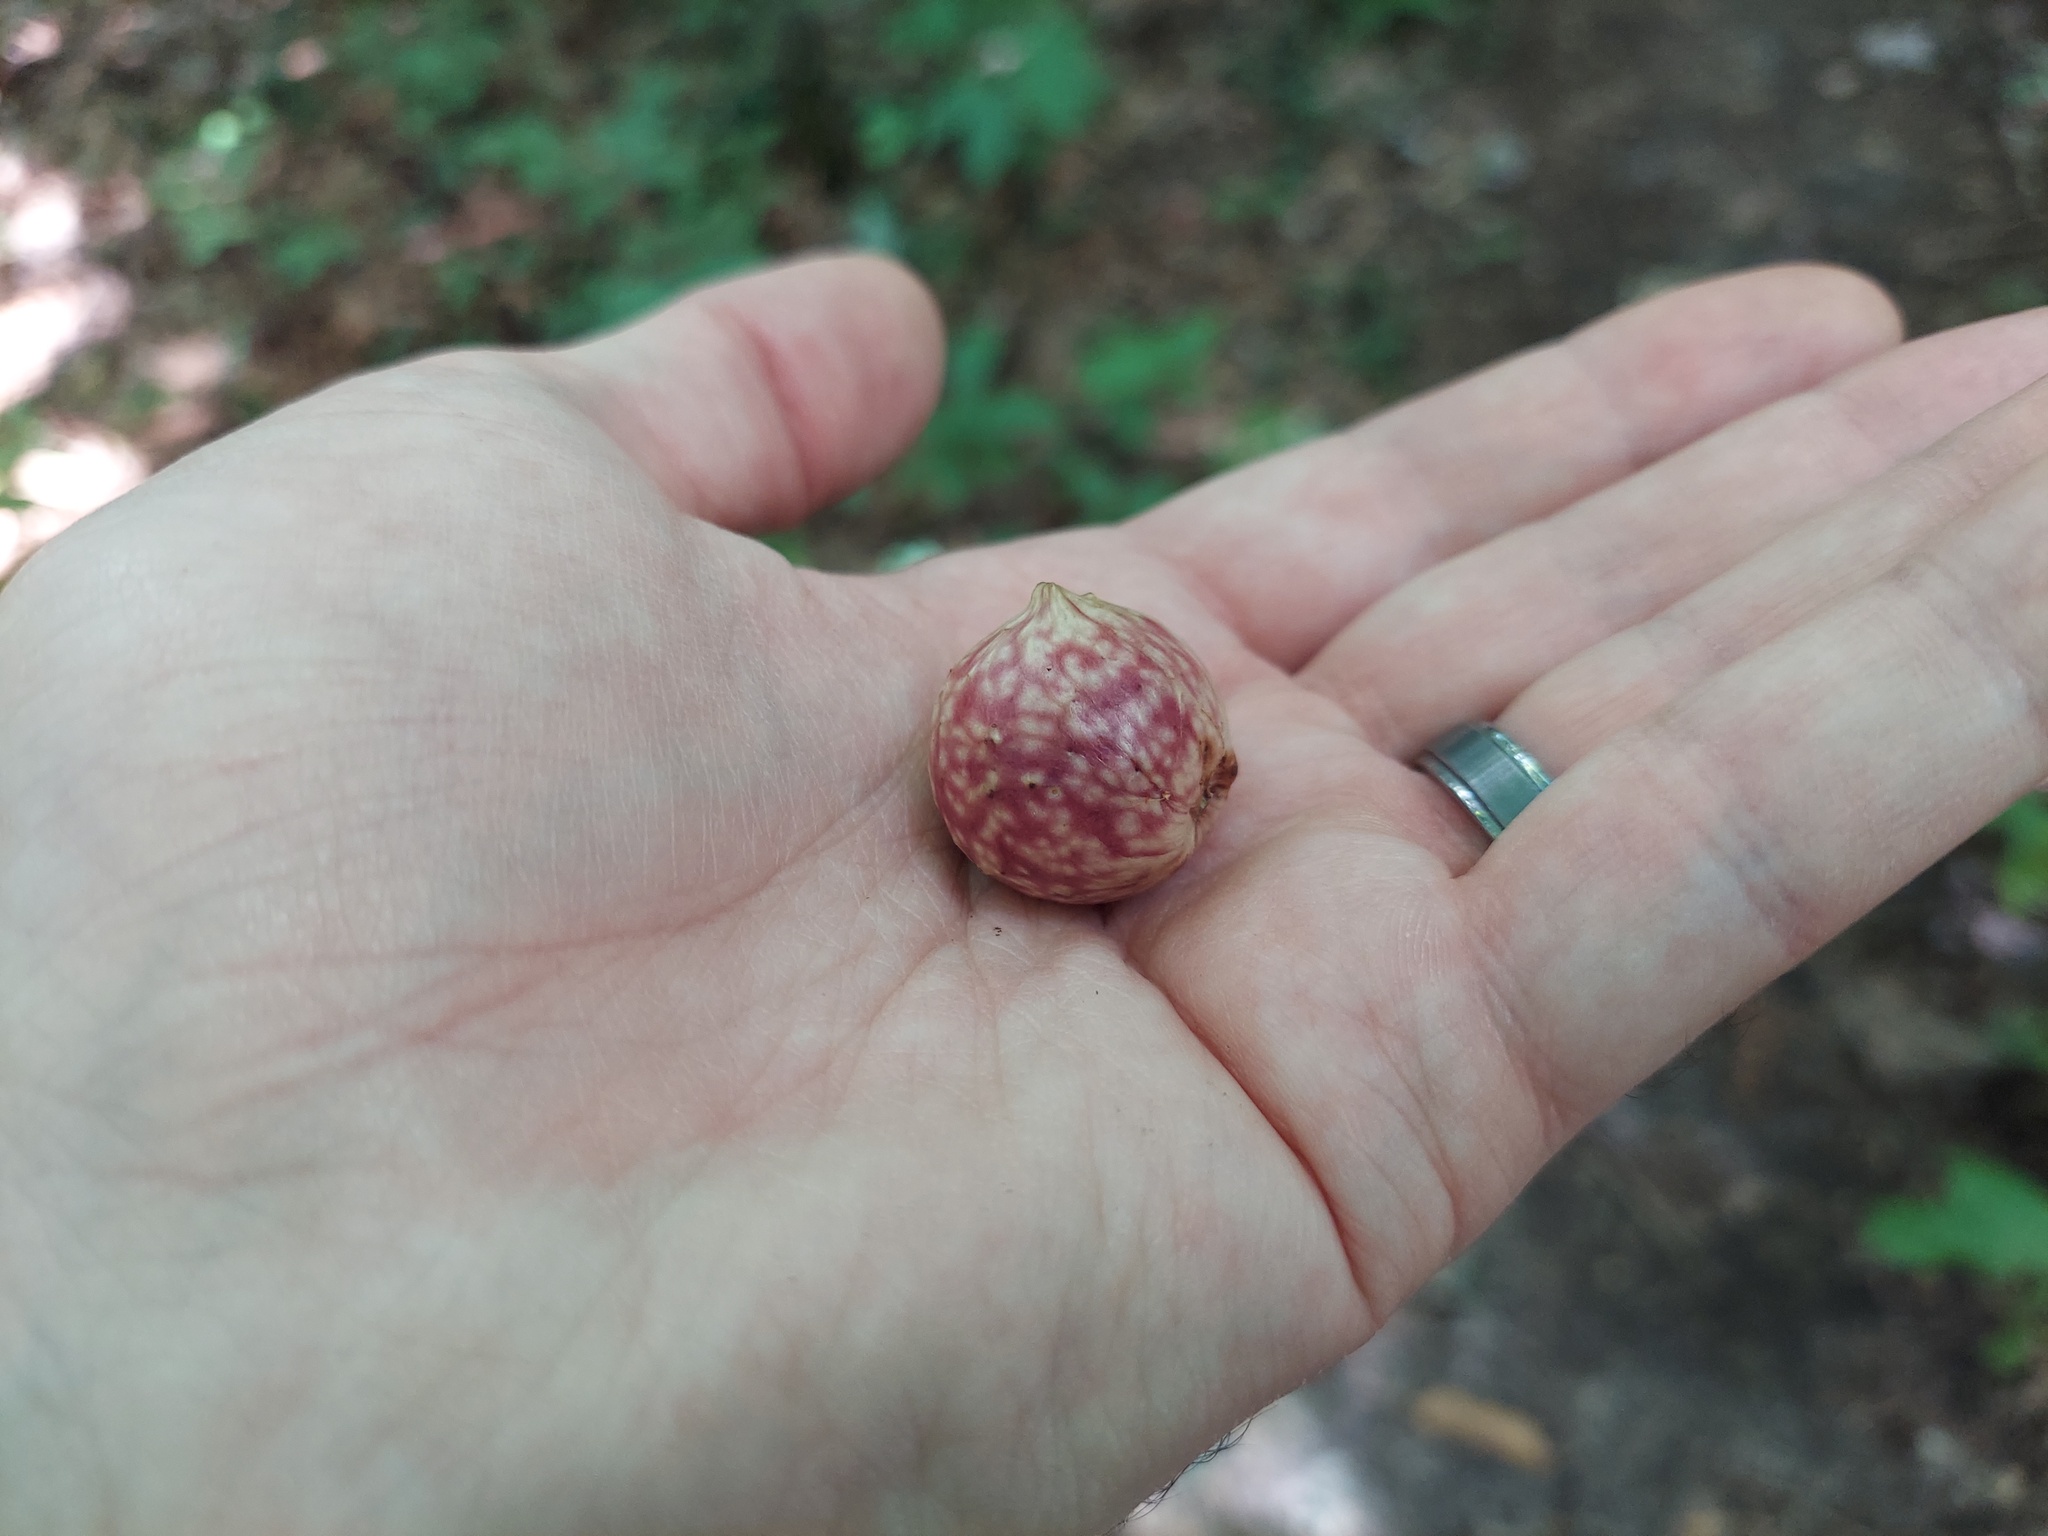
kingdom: Animalia
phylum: Arthropoda
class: Insecta
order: Hymenoptera
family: Cynipidae
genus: Amphibolips
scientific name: Amphibolips
